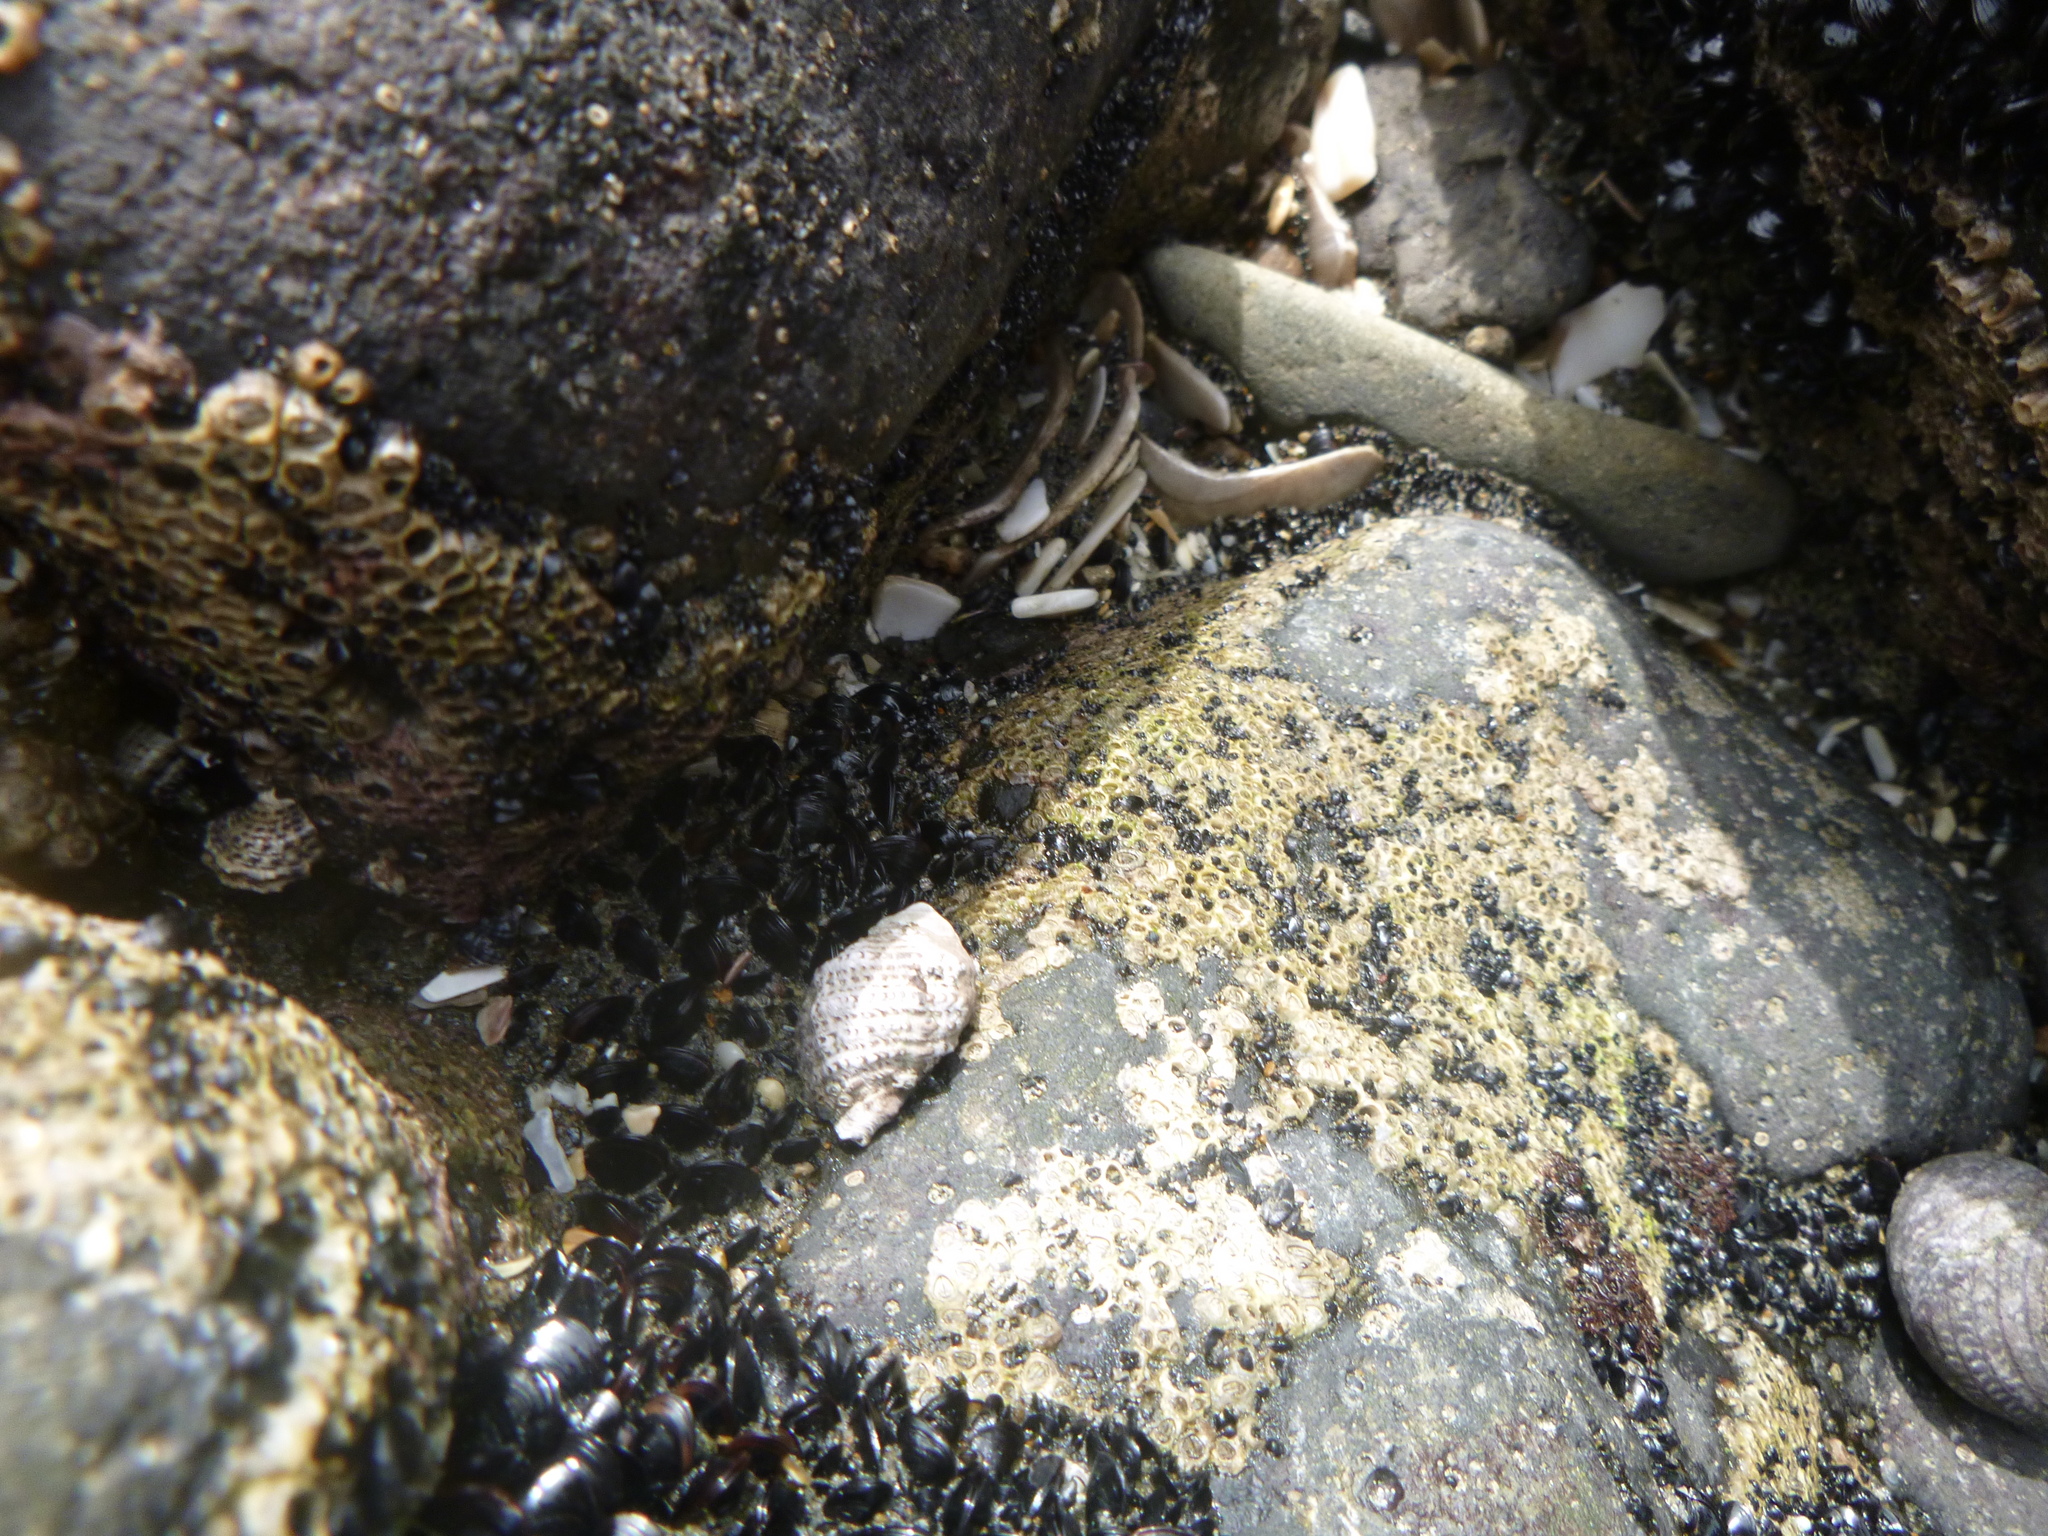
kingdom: Animalia
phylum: Mollusca
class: Gastropoda
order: Neogastropoda
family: Muricidae
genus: Haustrum
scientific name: Haustrum scobina
